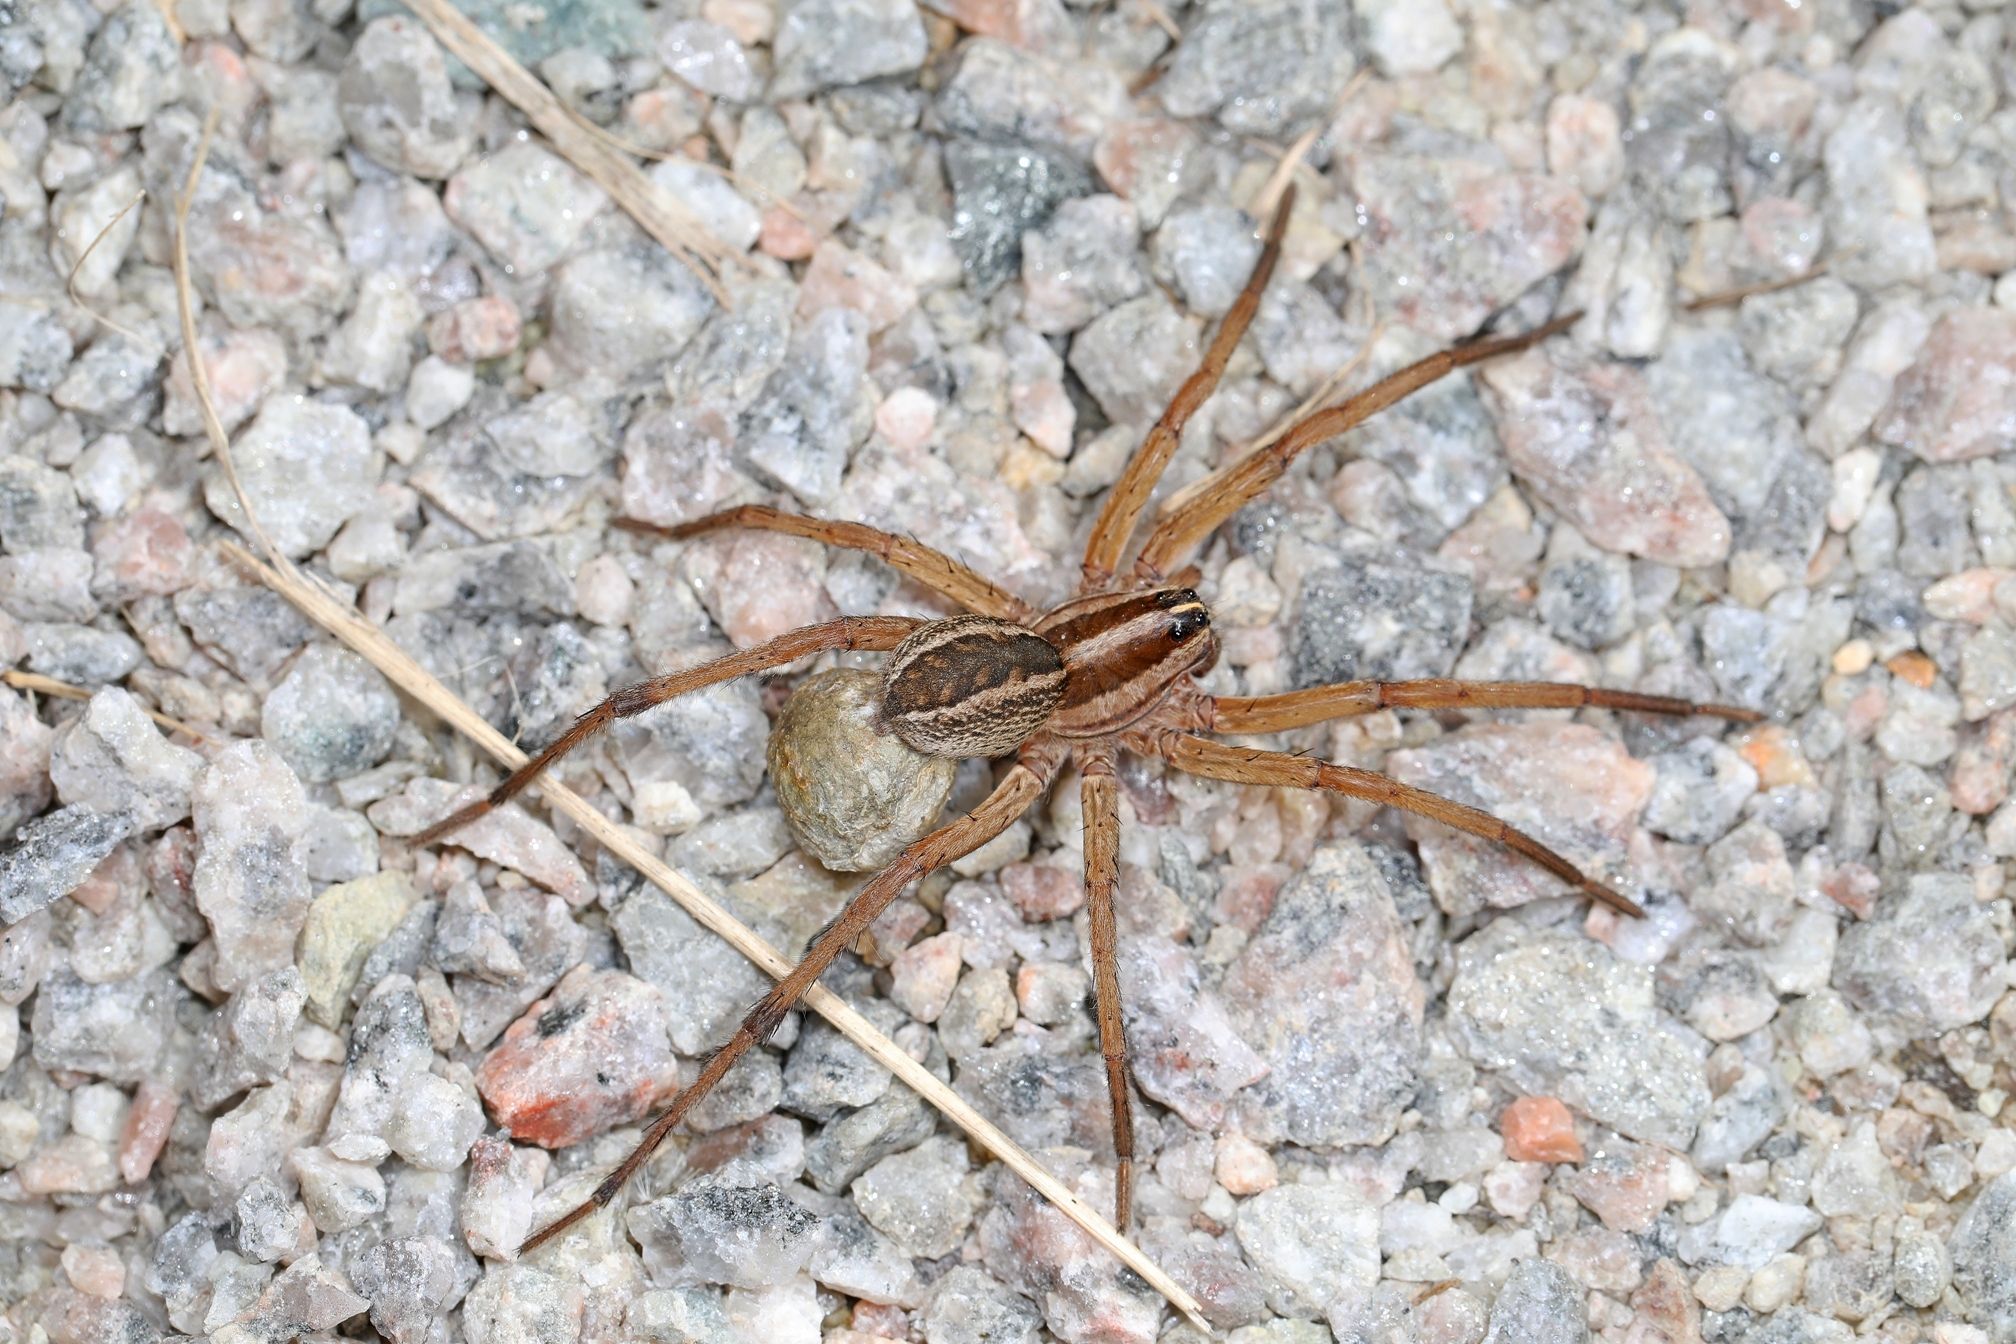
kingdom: Animalia
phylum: Arthropoda
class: Arachnida
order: Araneae
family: Lycosidae
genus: Rabidosa
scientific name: Rabidosa rabida
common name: Rabid wolf spider
